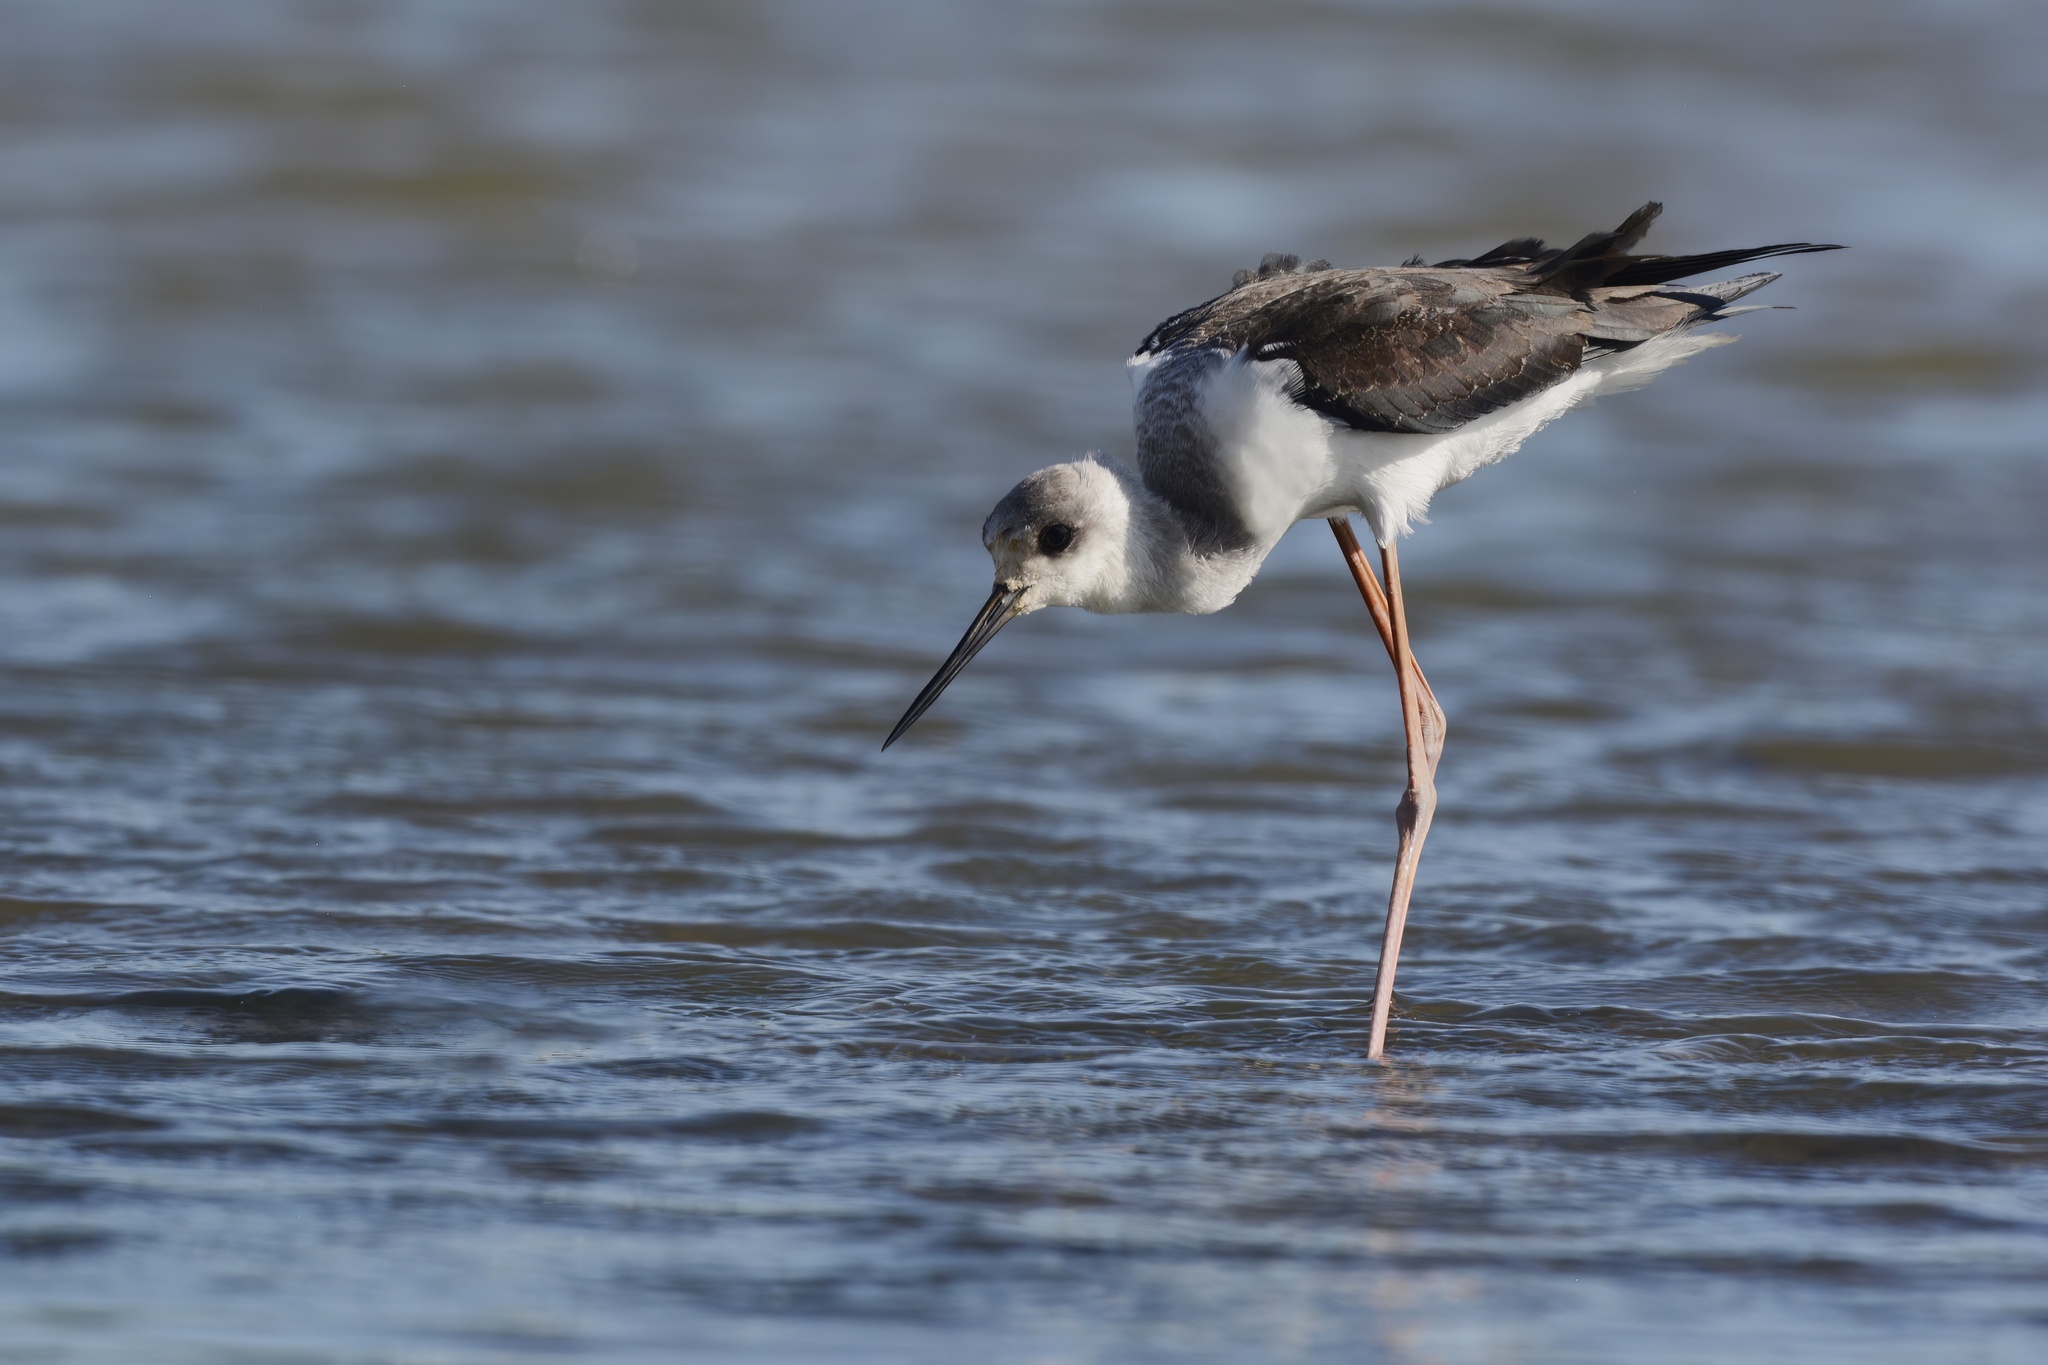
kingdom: Animalia
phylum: Chordata
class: Aves
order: Charadriiformes
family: Recurvirostridae
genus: Himantopus
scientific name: Himantopus leucocephalus
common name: White-headed stilt
